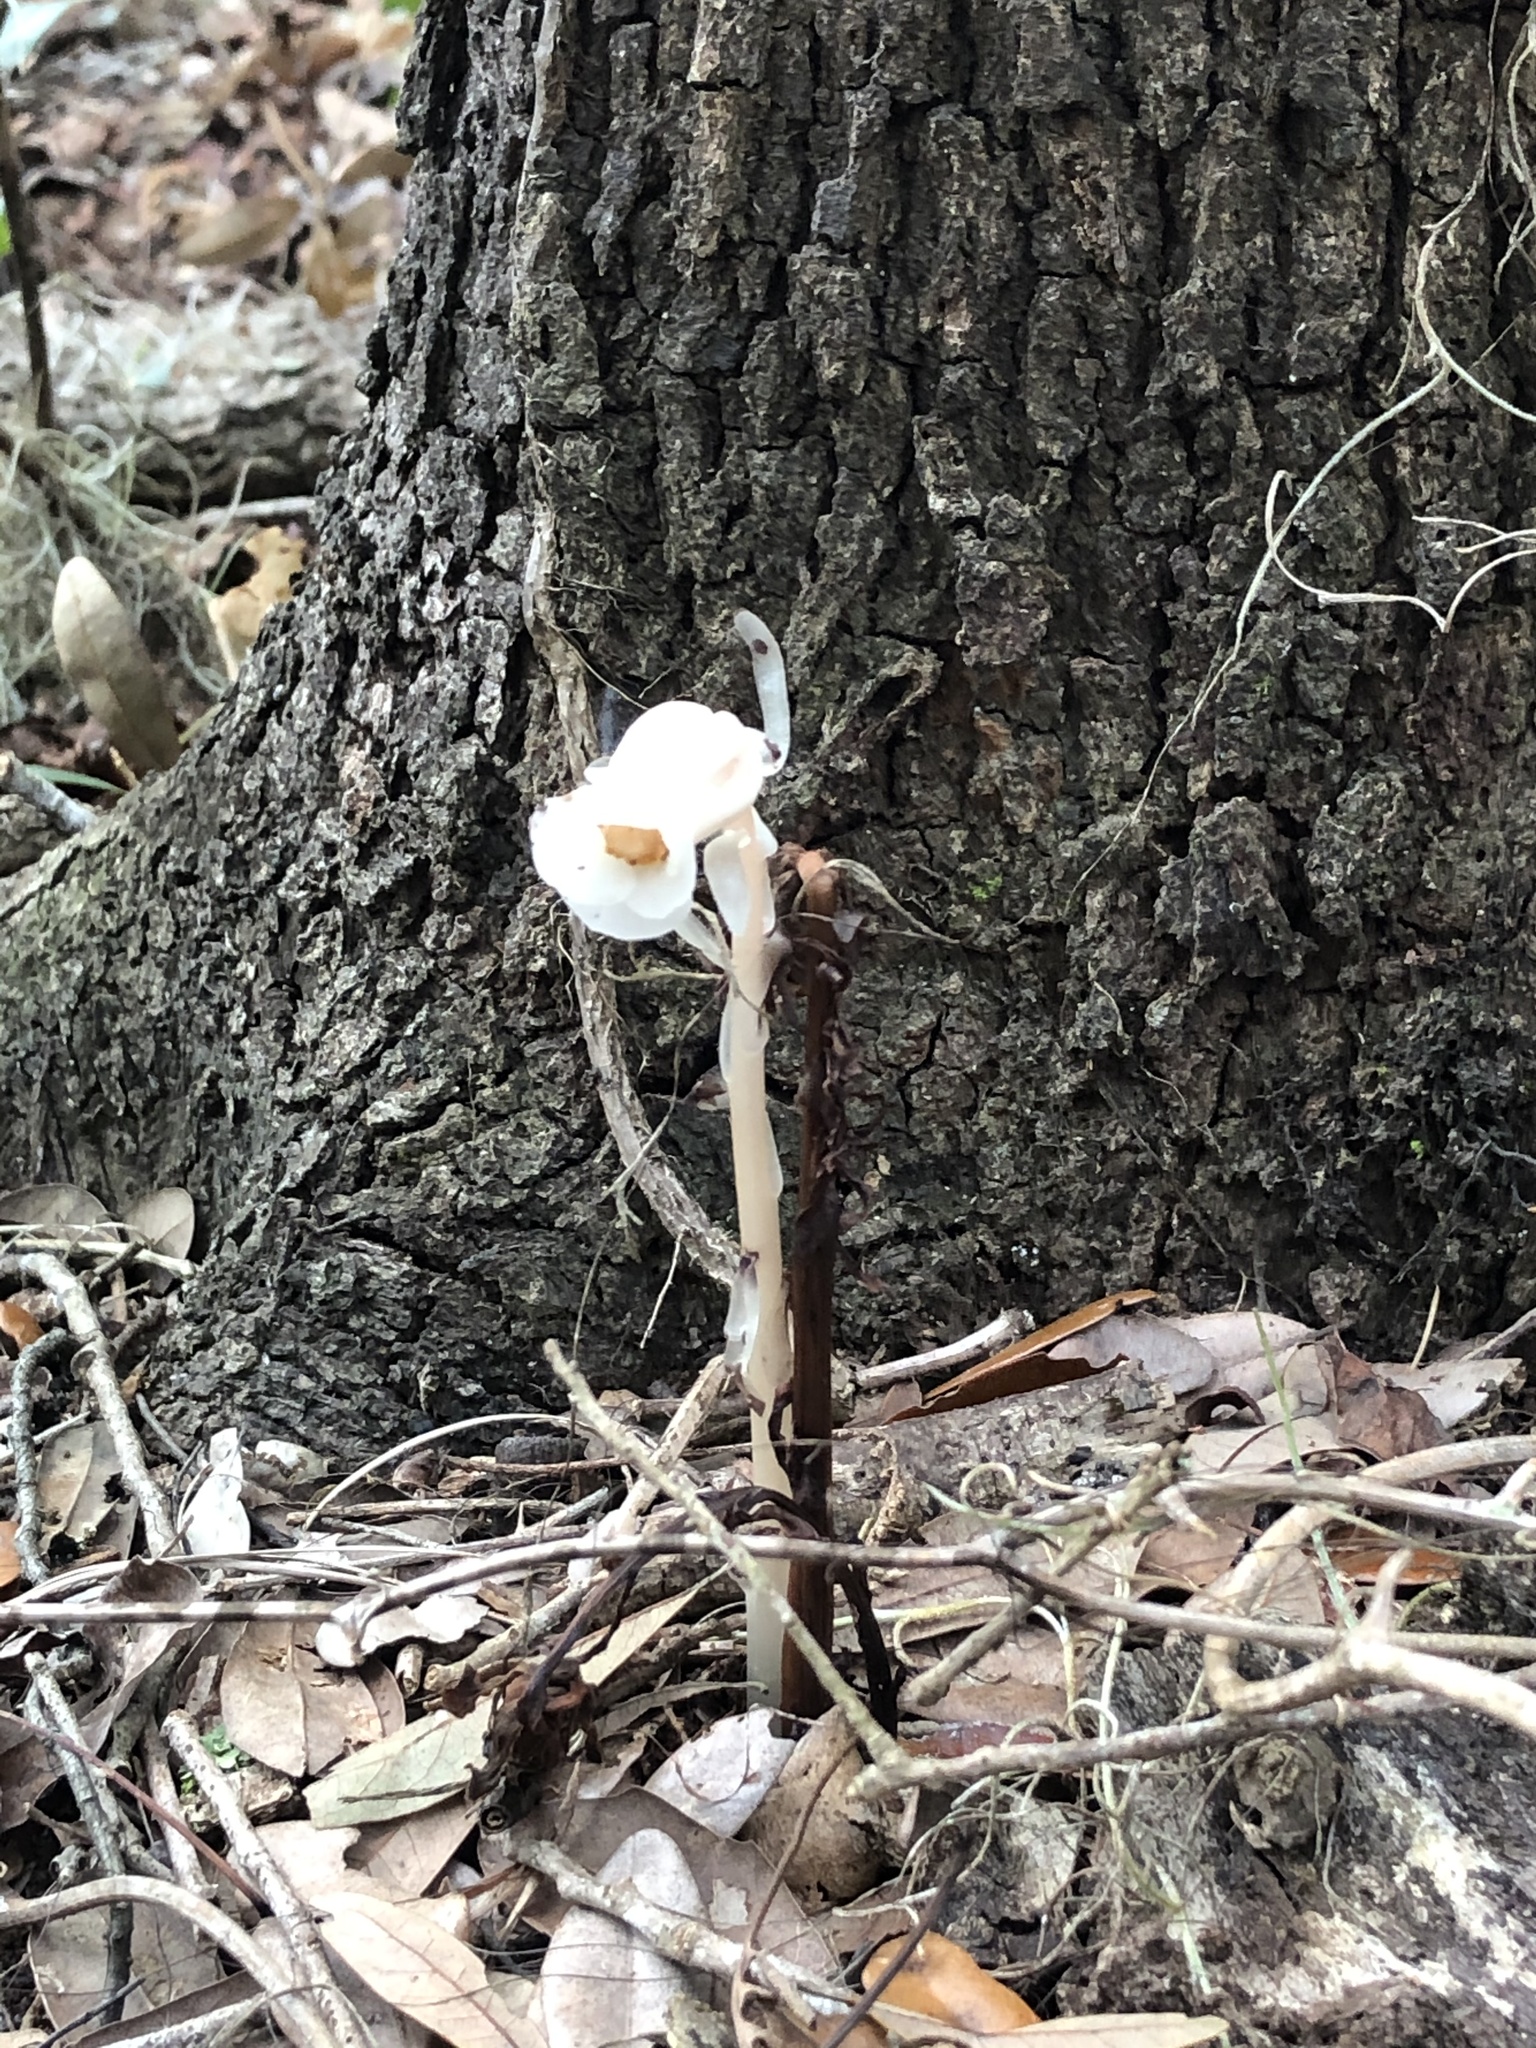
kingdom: Plantae
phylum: Tracheophyta
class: Magnoliopsida
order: Ericales
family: Ericaceae
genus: Monotropa
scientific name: Monotropa uniflora
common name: Convulsion root
